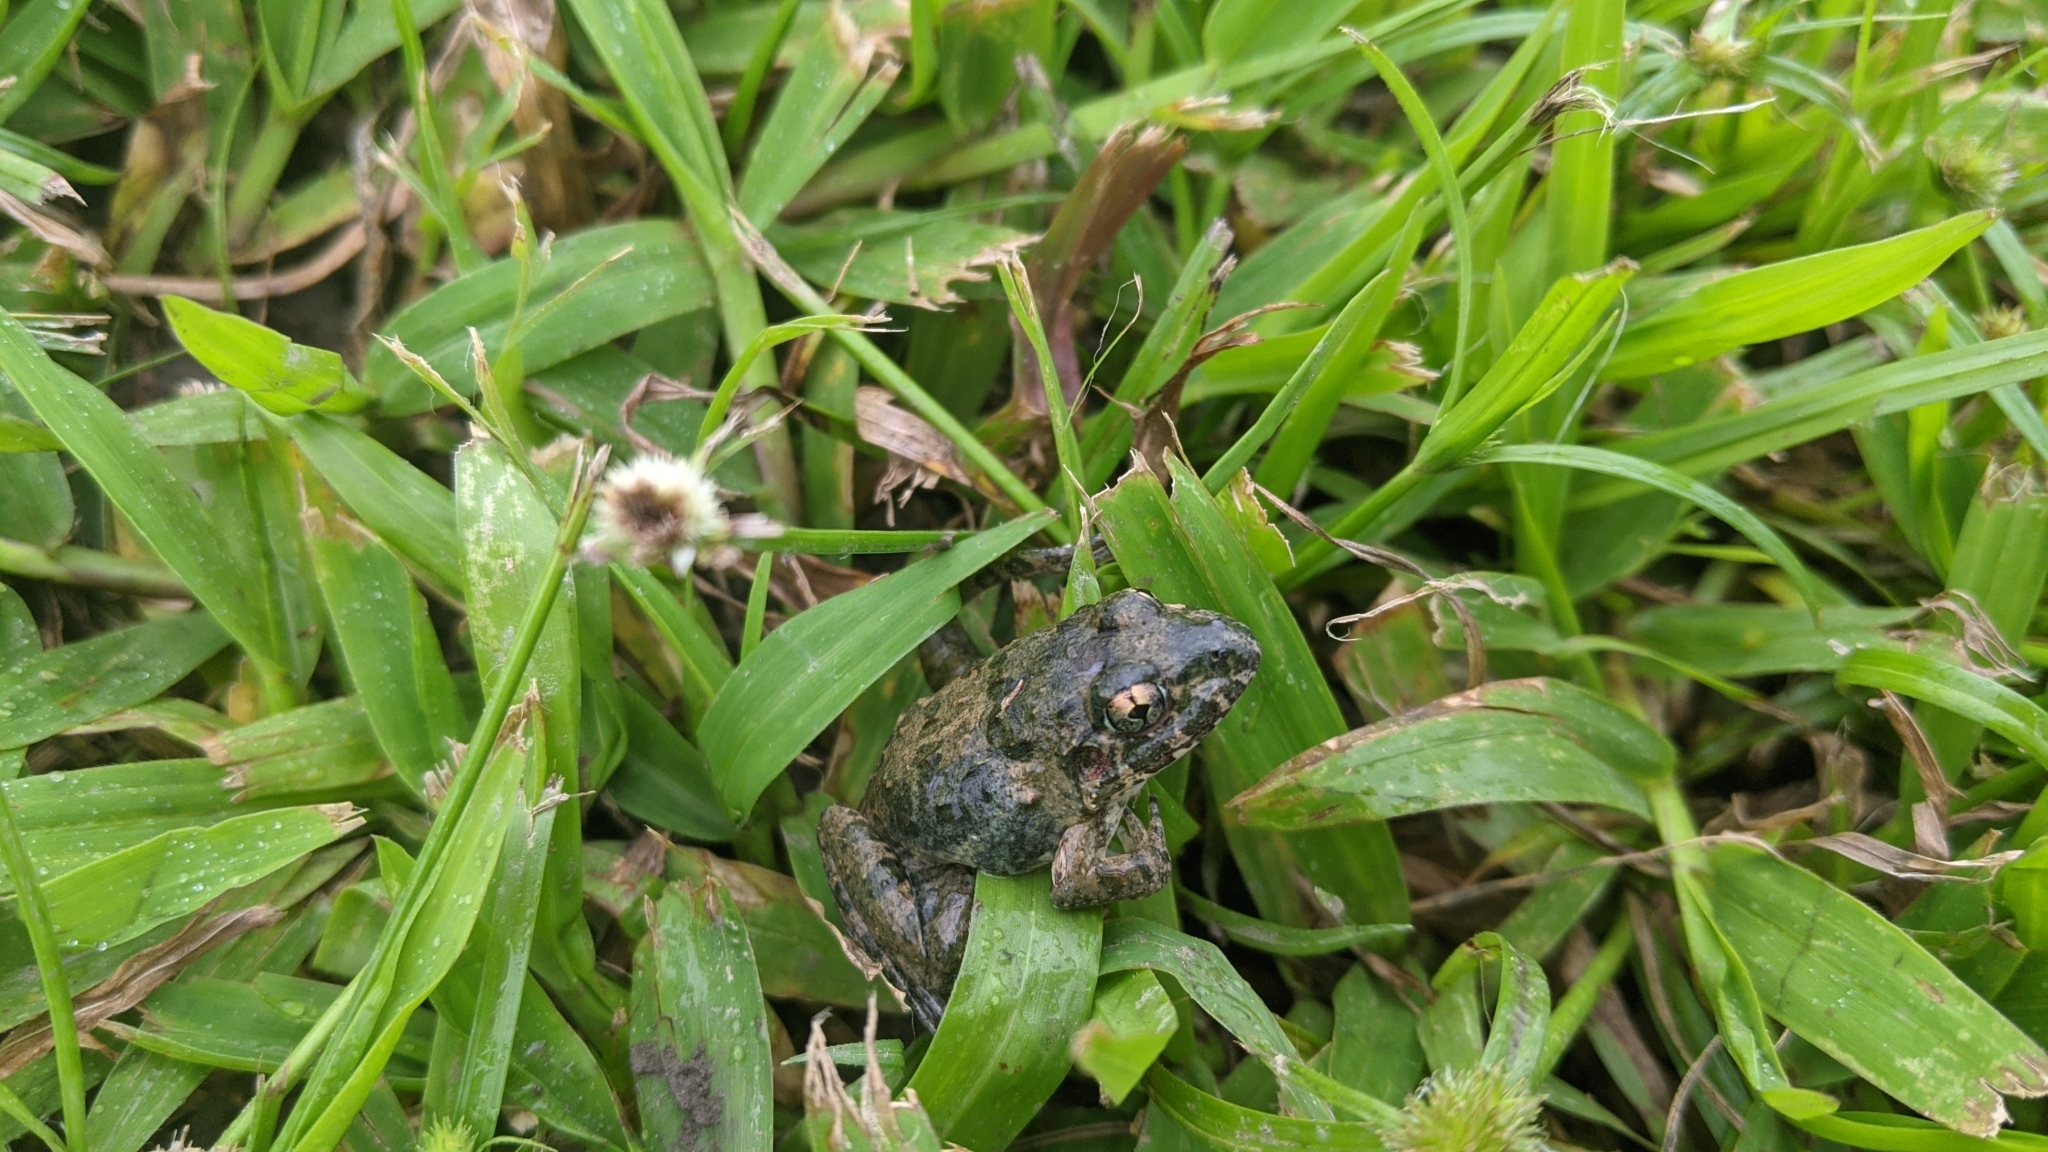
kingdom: Animalia
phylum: Chordata
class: Amphibia
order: Anura
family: Dicroglossidae
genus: Fejervarya
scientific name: Fejervarya limnocharis
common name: Asian grass frog/common pond frog/field frog/grass frog/indian rice frog
